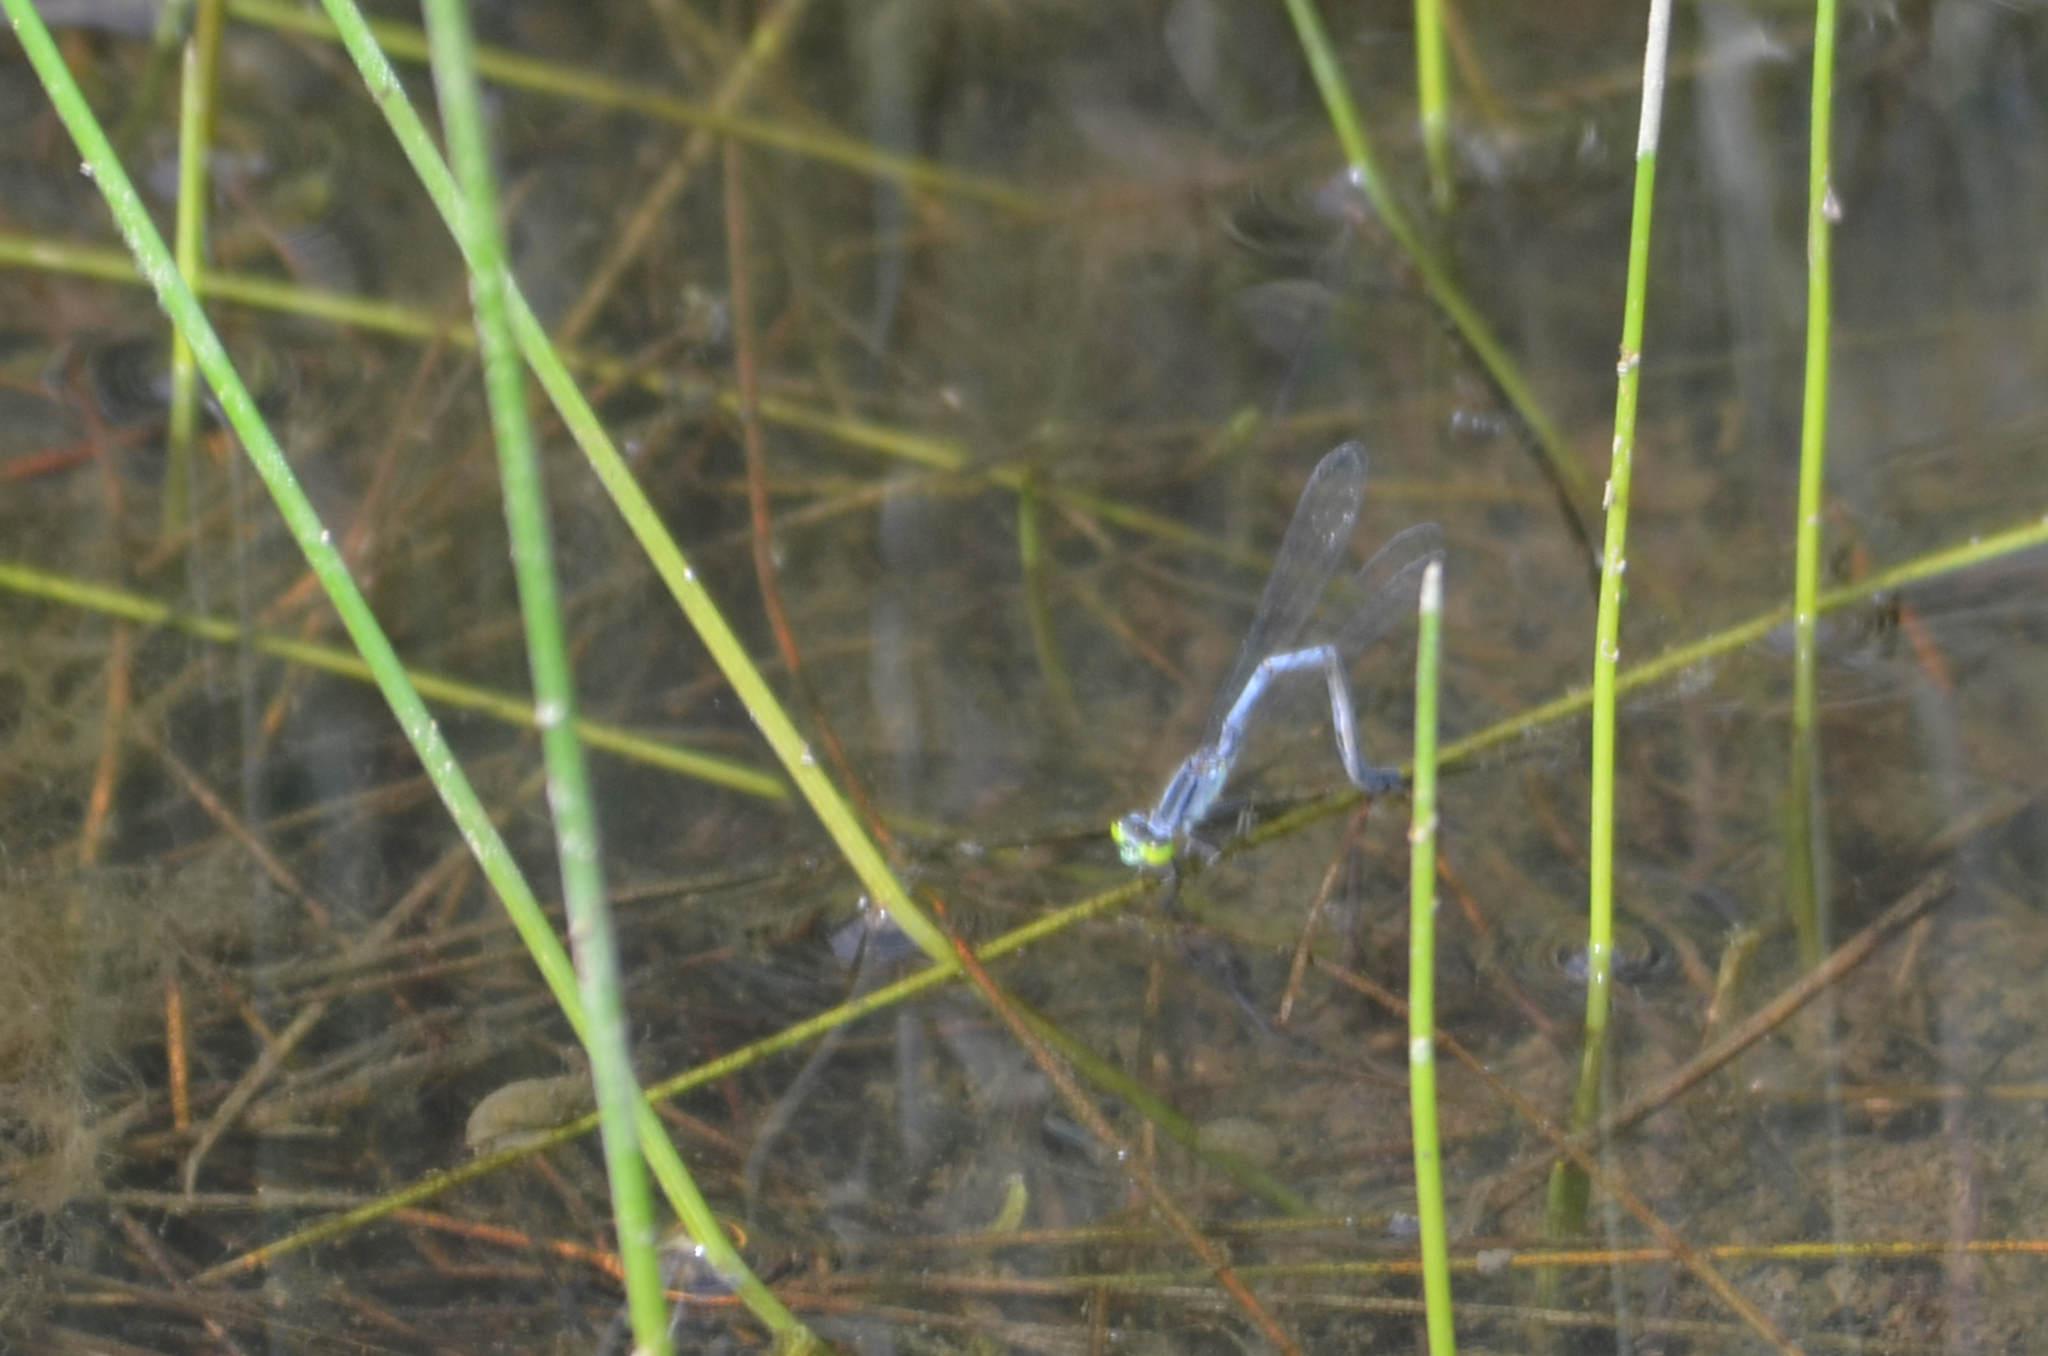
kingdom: Animalia
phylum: Arthropoda
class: Insecta
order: Odonata
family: Coenagrionidae
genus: Ischnura
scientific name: Ischnura verticalis
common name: Eastern forktail
